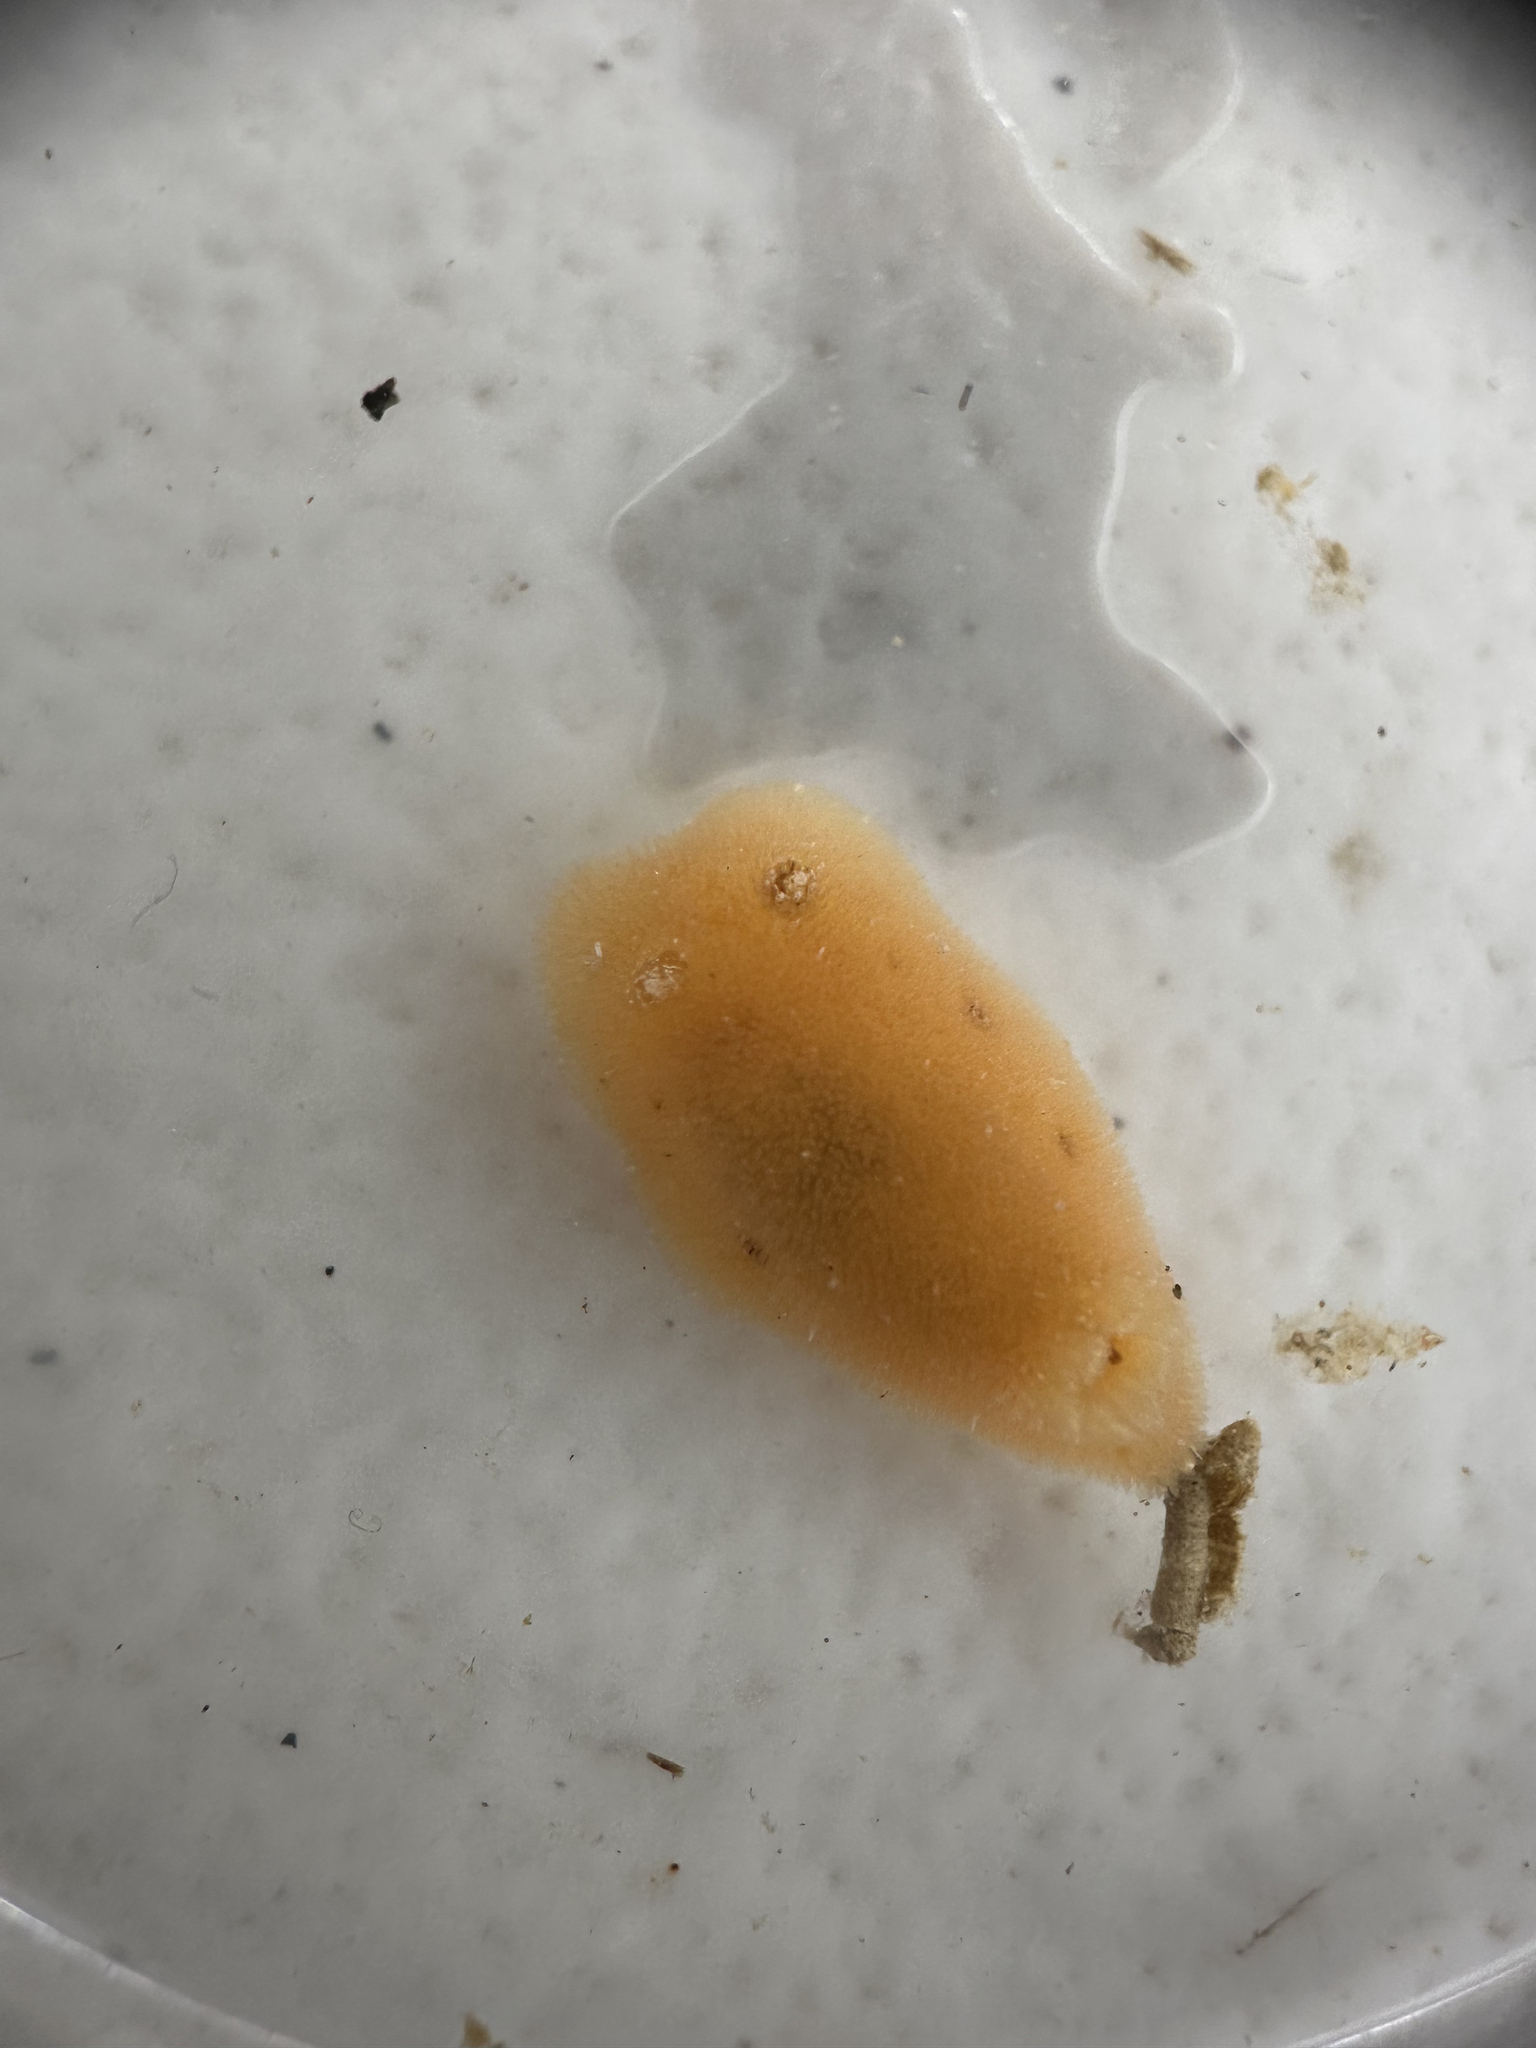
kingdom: Animalia
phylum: Mollusca
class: Gastropoda
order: Nudibranchia
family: Discodorididae
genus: Rostanga
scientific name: Rostanga calumus
